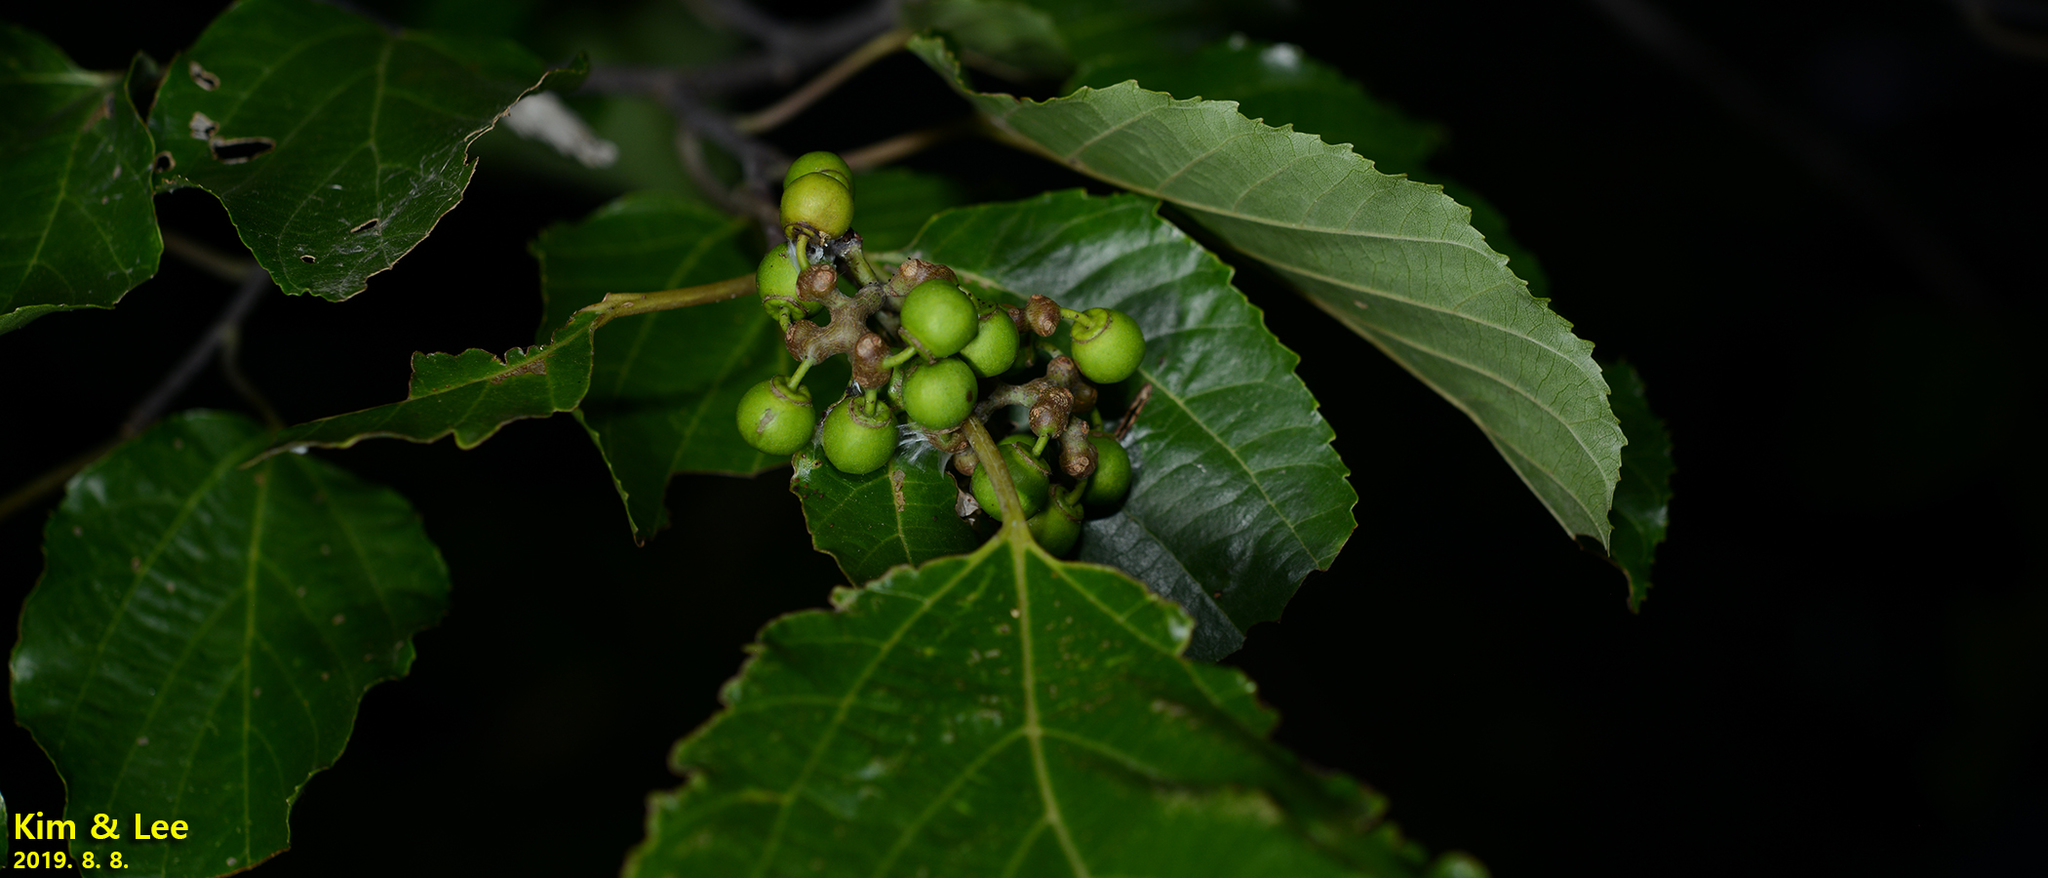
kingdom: Plantae
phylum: Tracheophyta
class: Magnoliopsida
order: Rosales
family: Rhamnaceae
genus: Hovenia
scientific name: Hovenia dulcis
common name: Japanese raisintree
